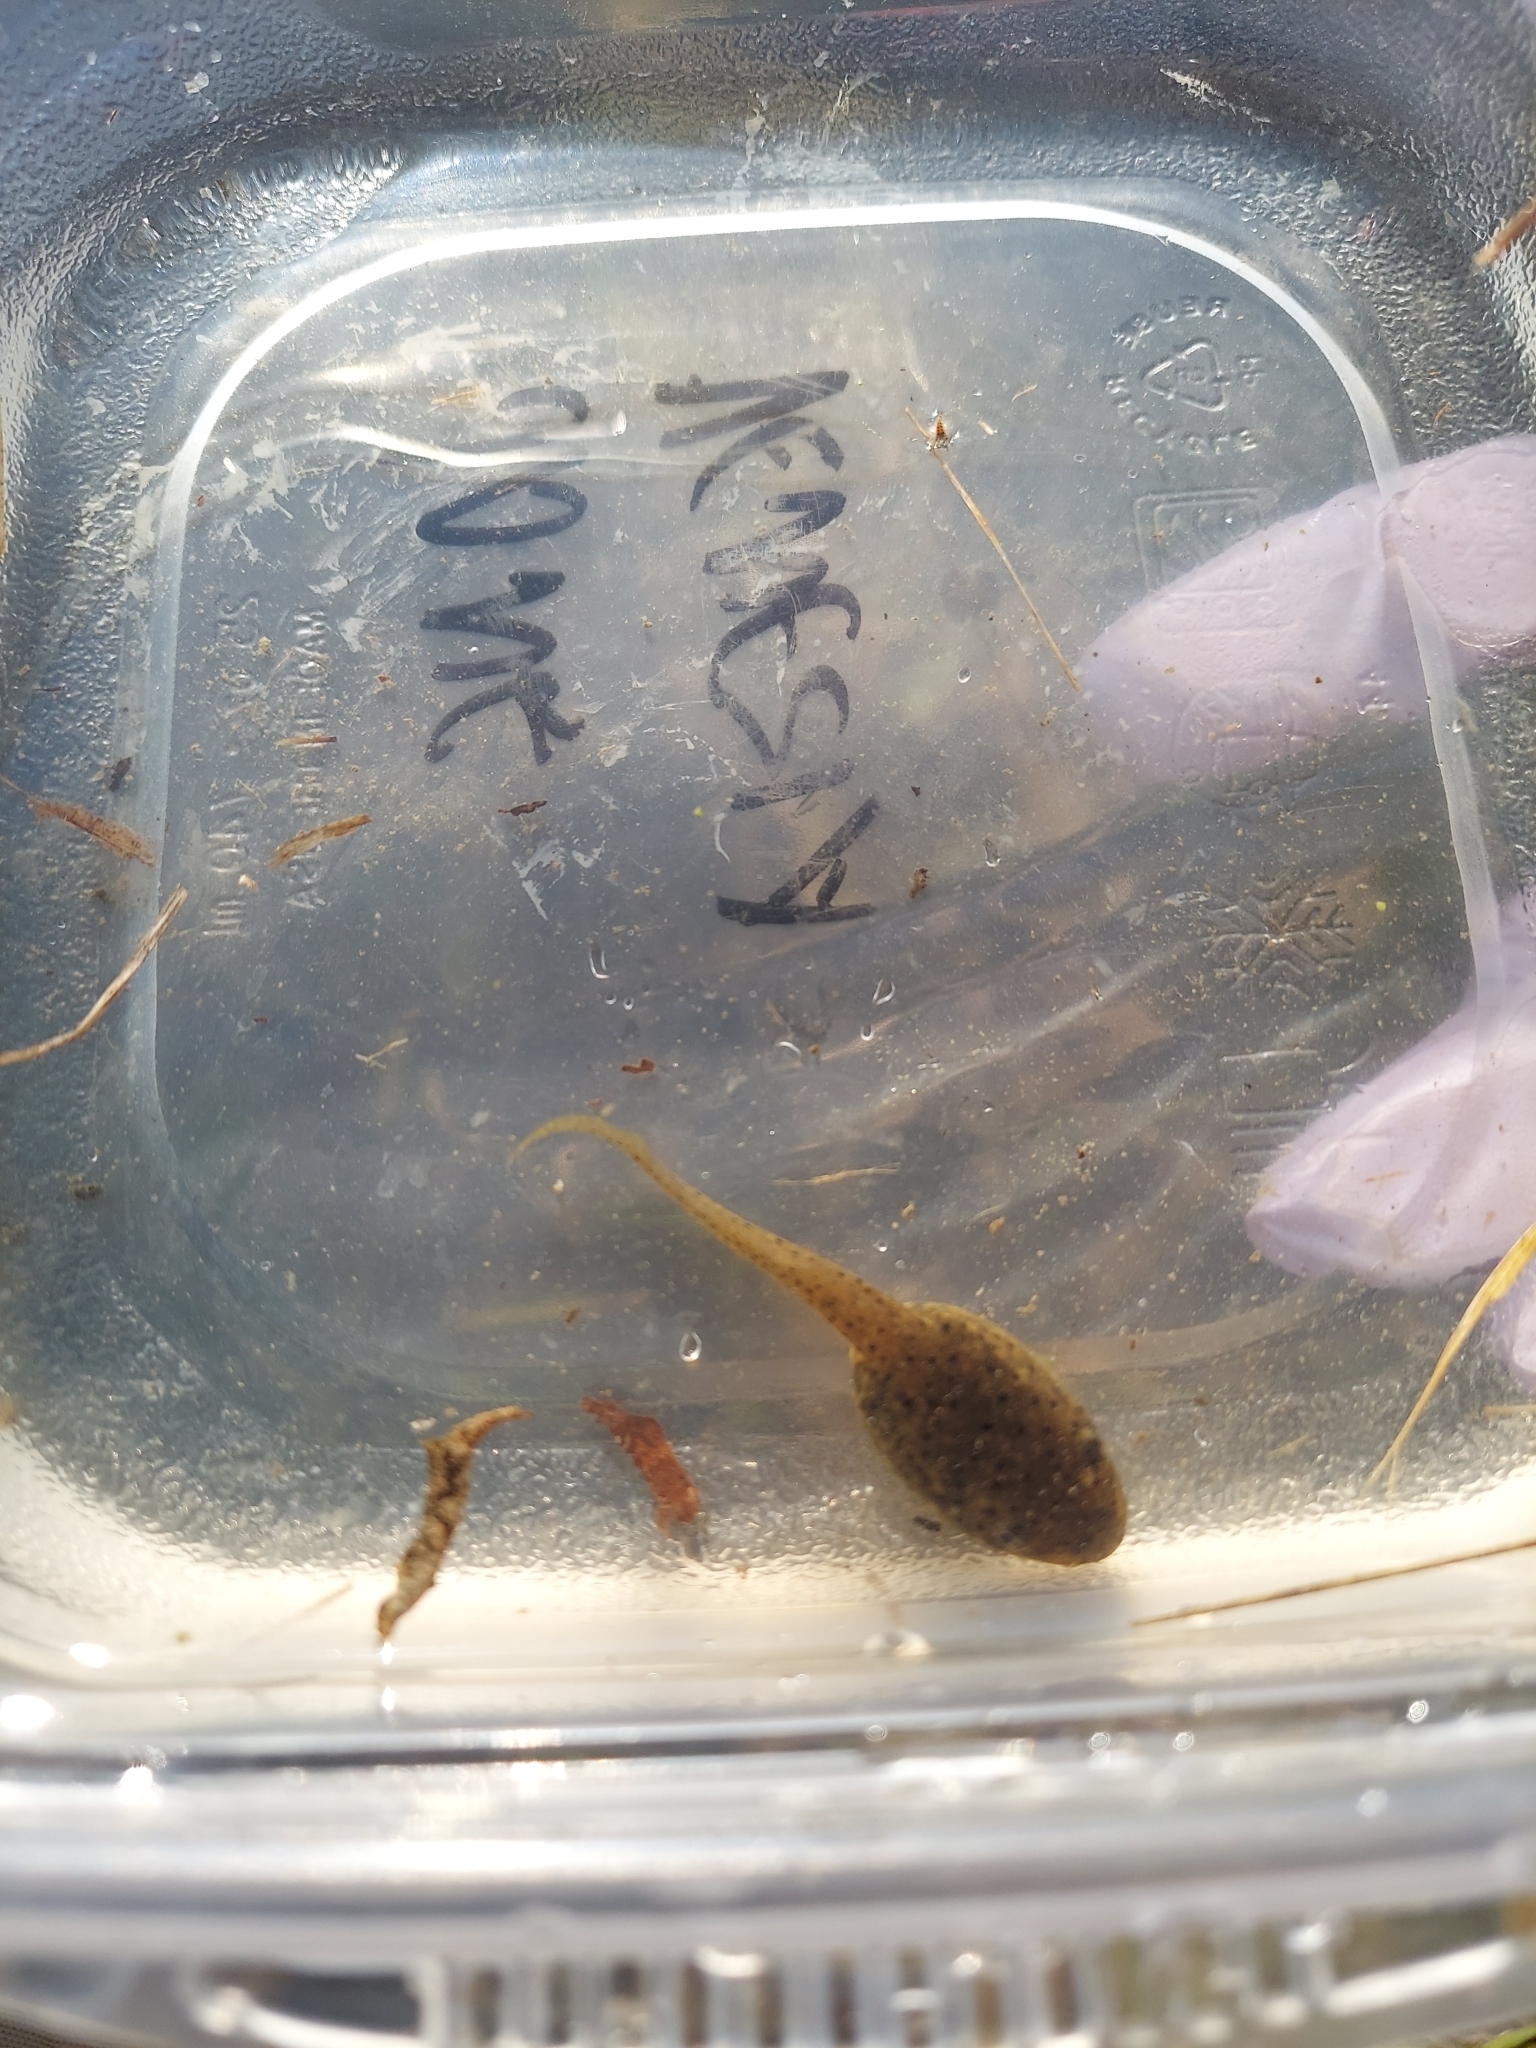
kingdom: Animalia
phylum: Chordata
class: Amphibia
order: Anura
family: Ranidae
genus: Lithobates
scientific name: Lithobates catesbeianus
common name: American bullfrog
